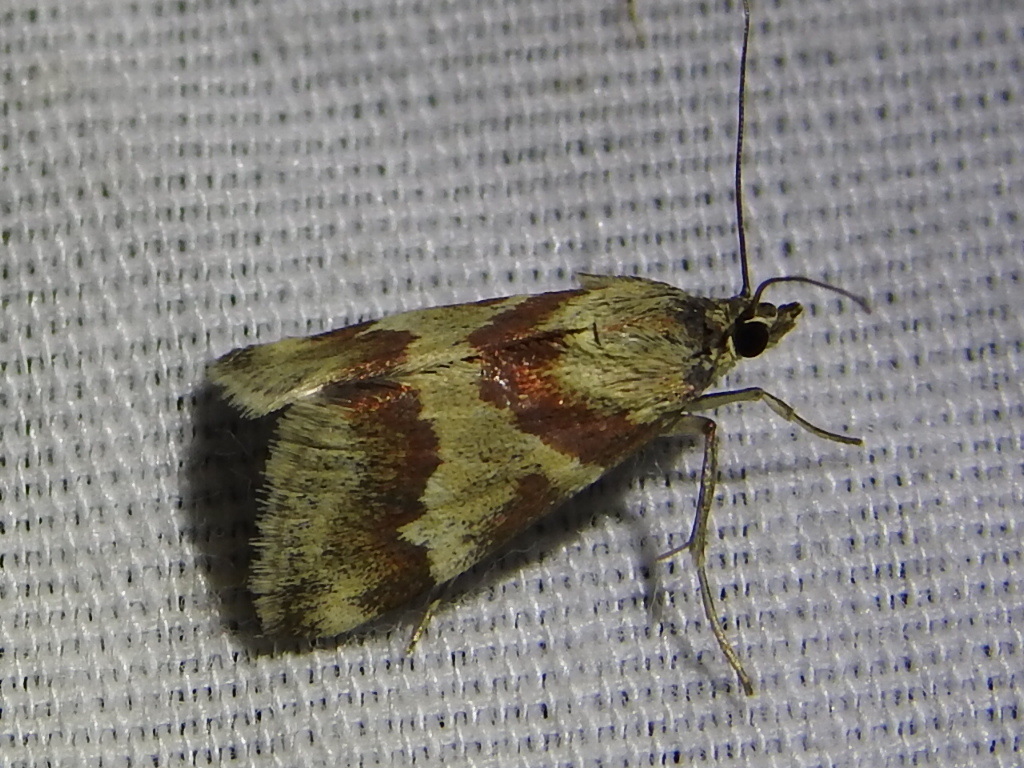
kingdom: Animalia
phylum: Arthropoda
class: Insecta
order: Lepidoptera
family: Crambidae
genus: Noctuelia
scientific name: Noctuelia Mimoschinia rufofascialis
